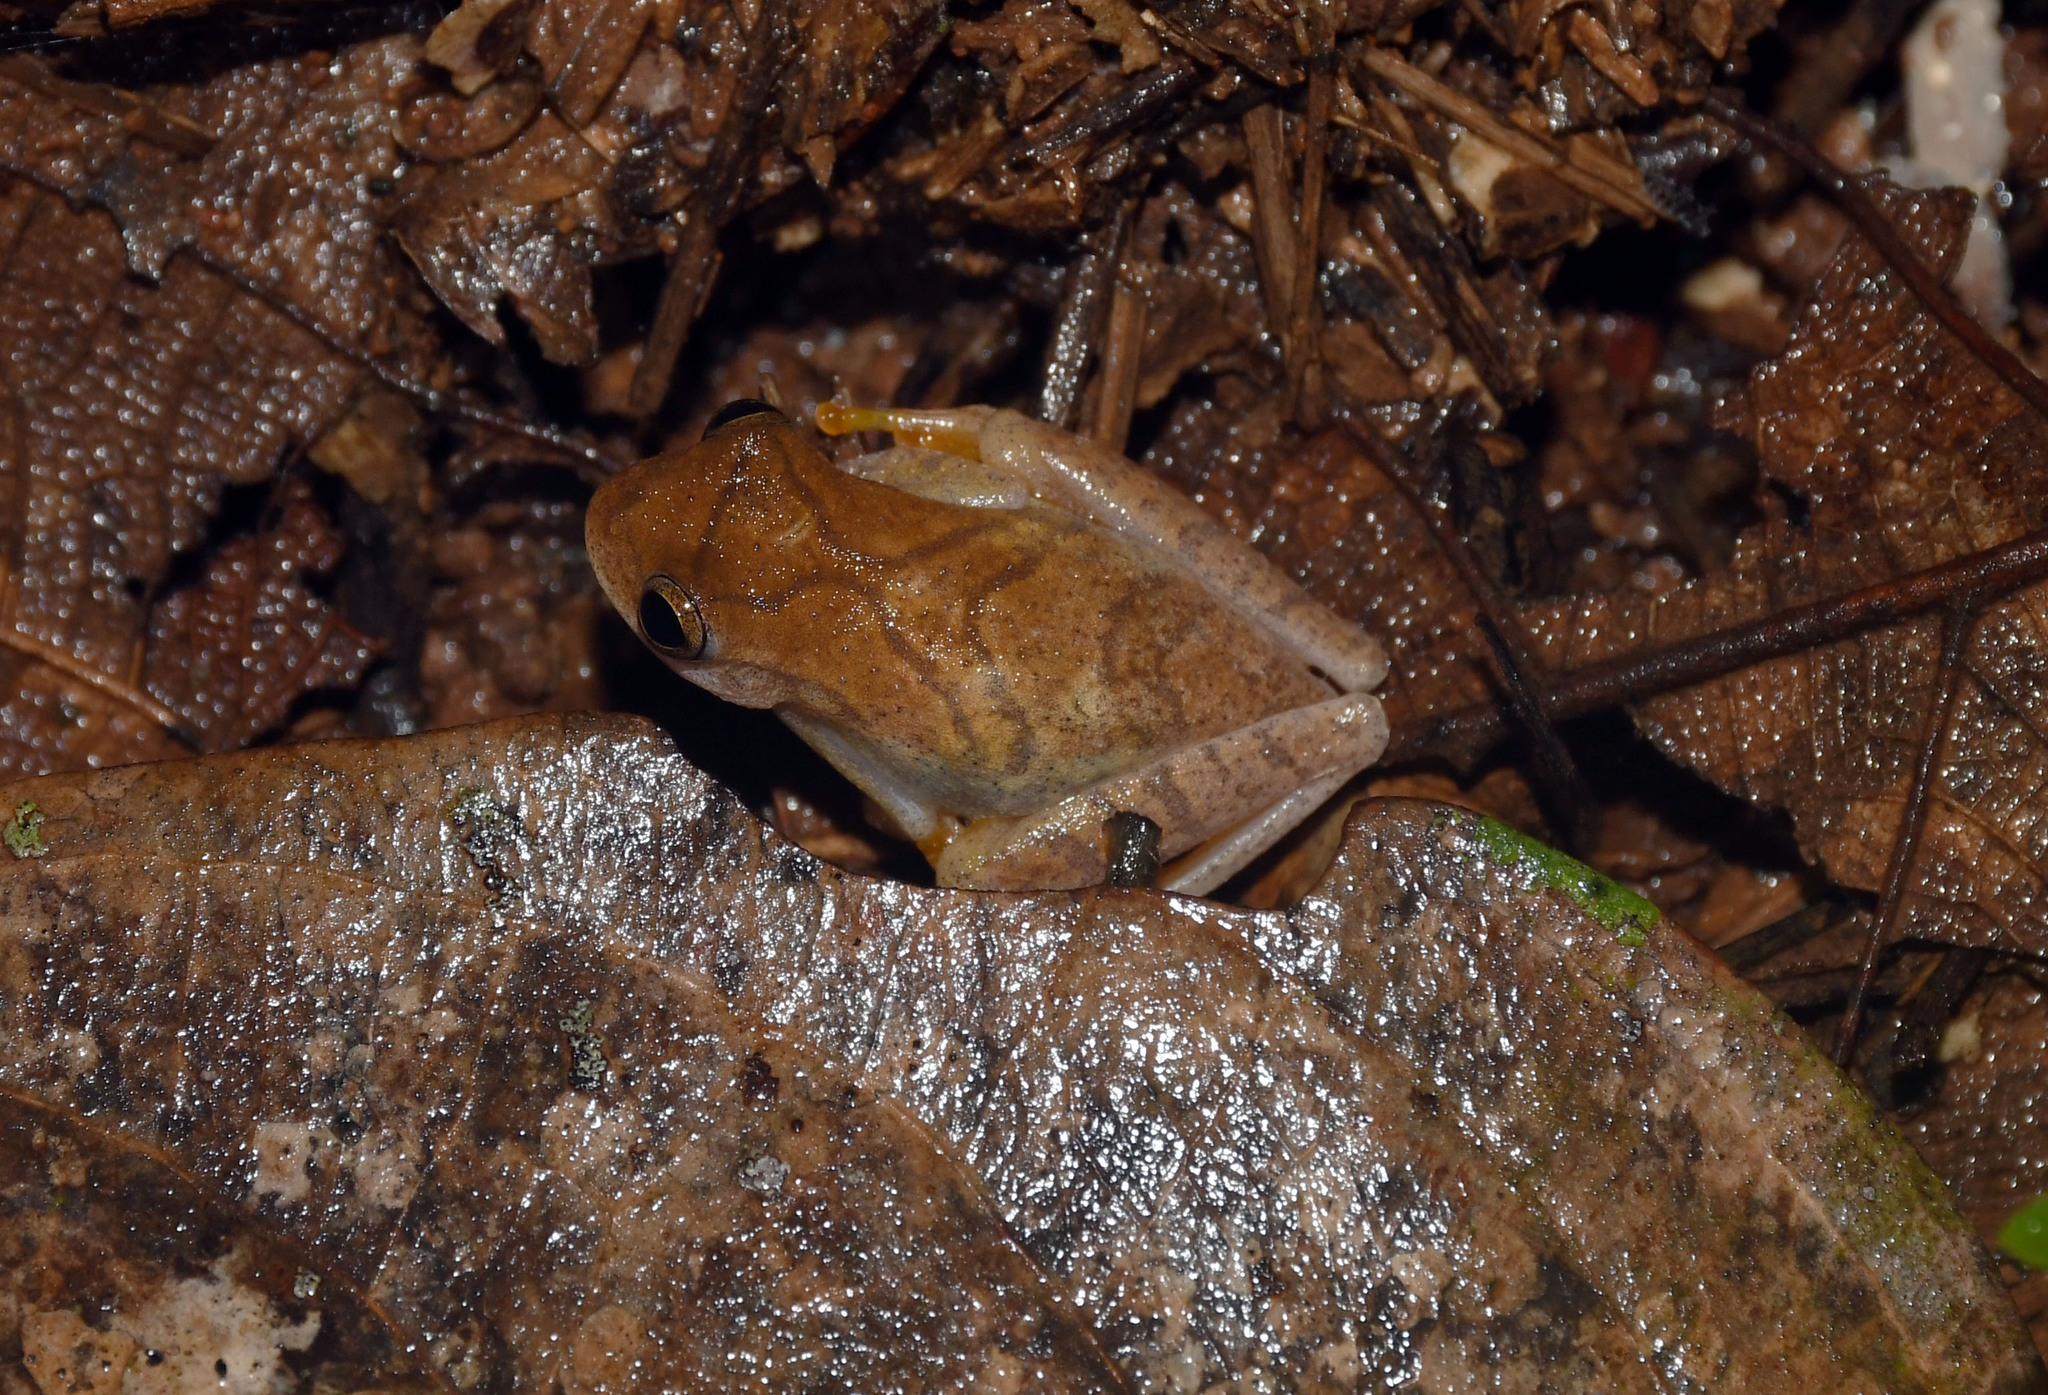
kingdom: Animalia
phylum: Chordata
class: Amphibia
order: Anura
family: Hylidae
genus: Dendropsophus
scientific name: Dendropsophus minutus
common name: Lesser treefrog
